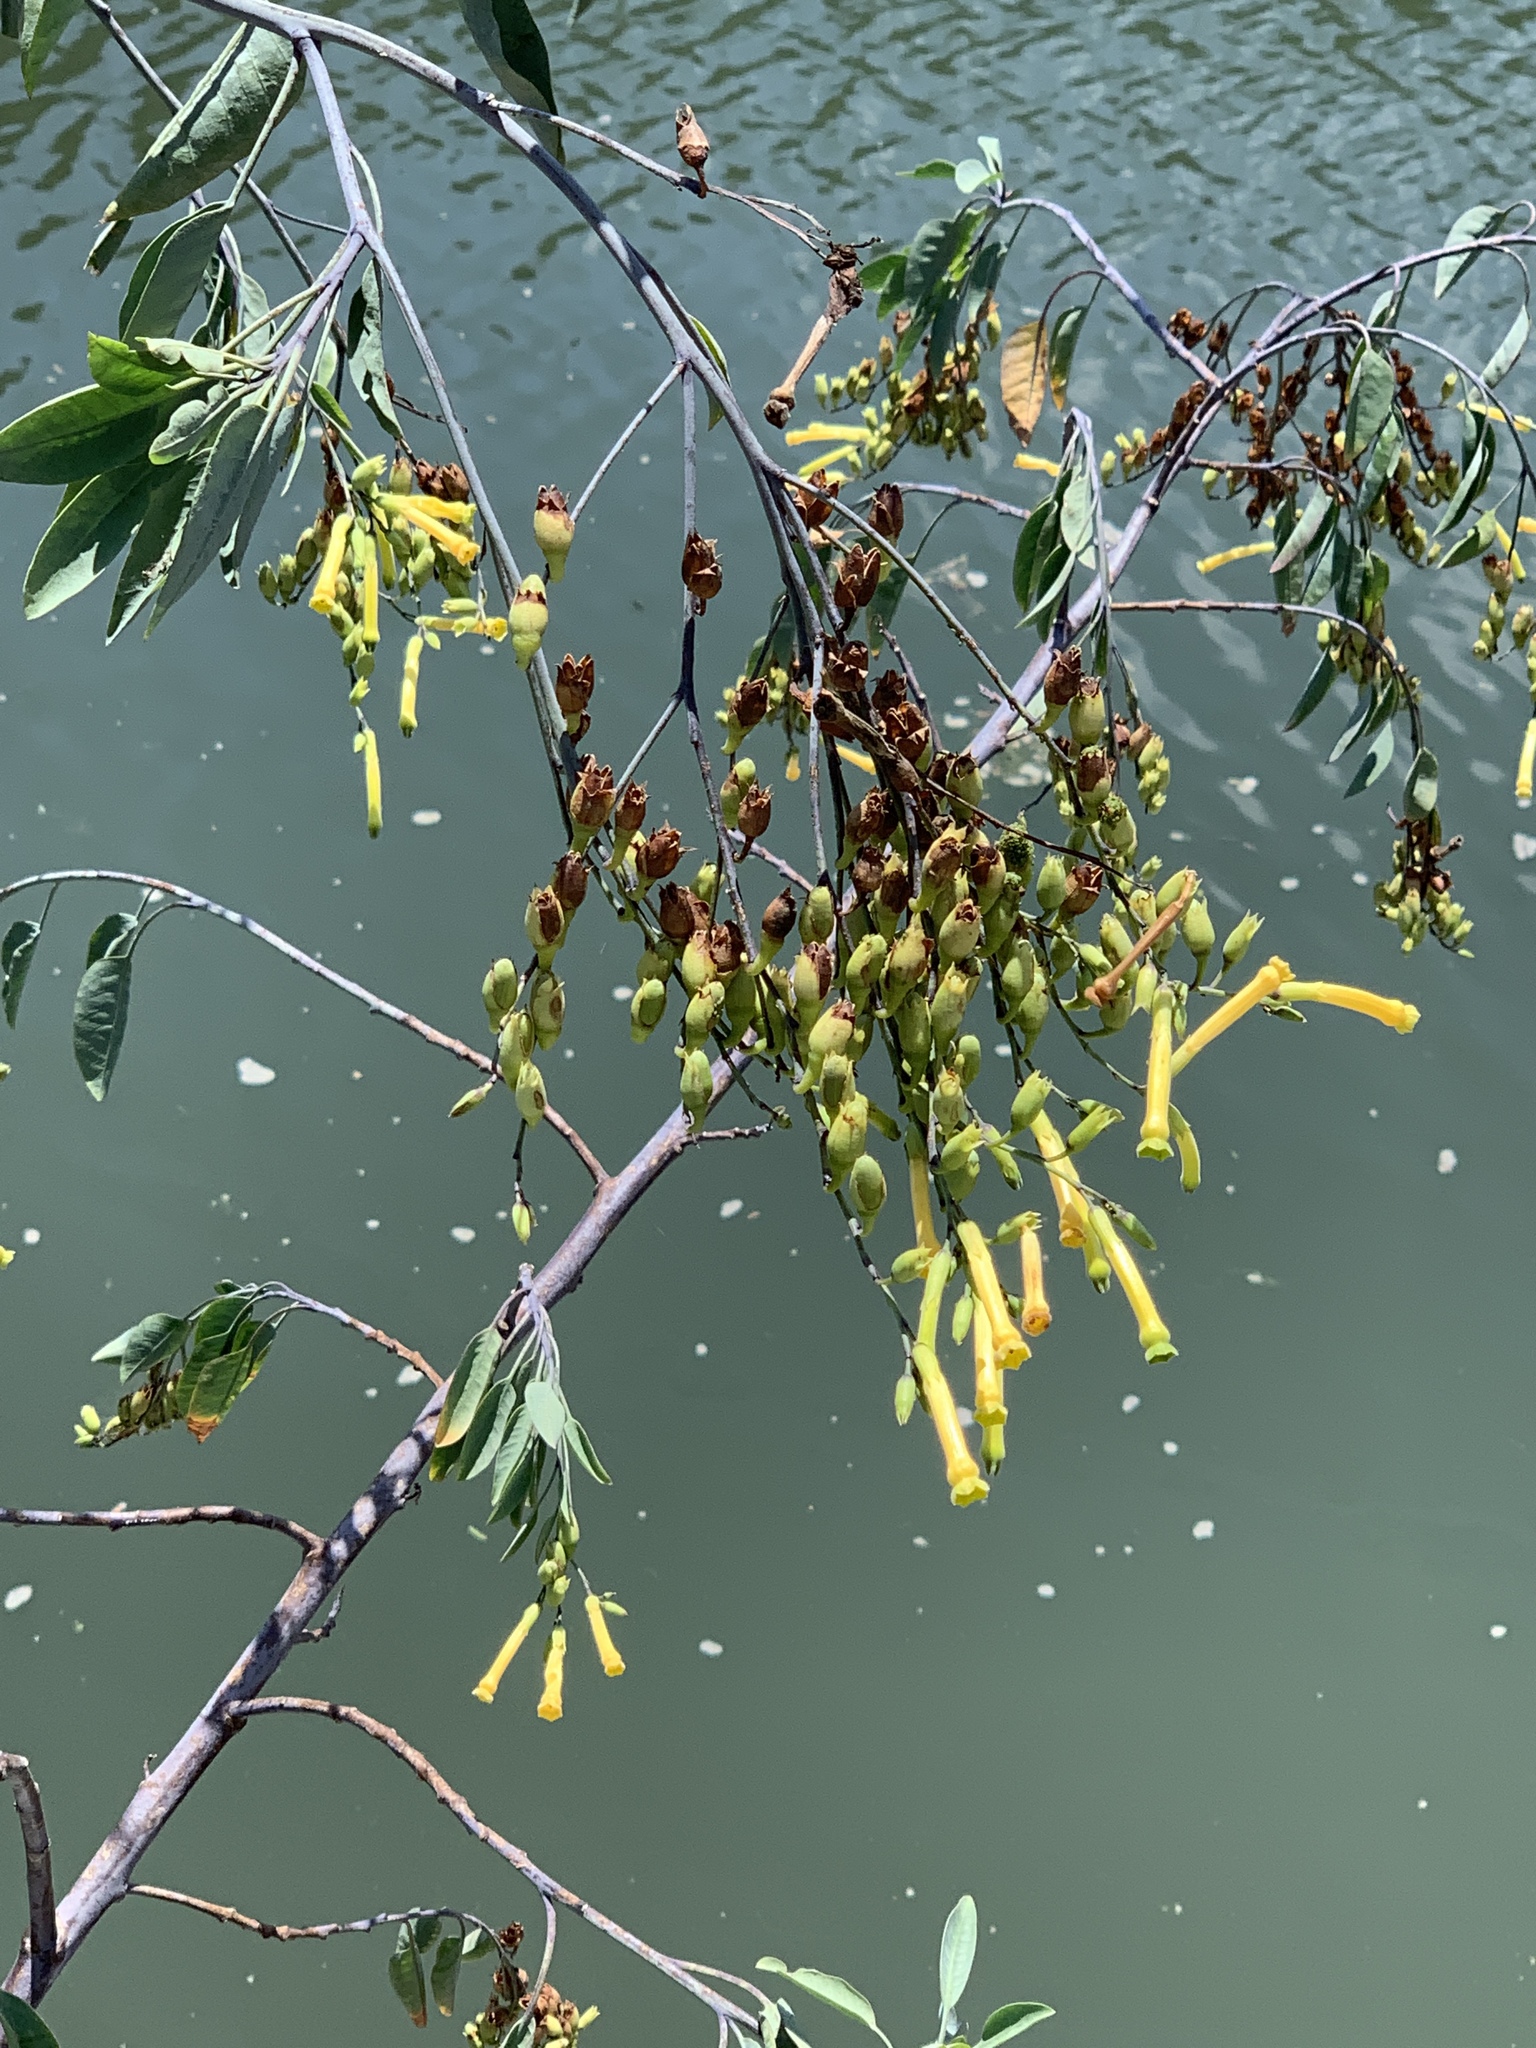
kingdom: Plantae
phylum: Tracheophyta
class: Magnoliopsida
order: Solanales
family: Solanaceae
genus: Nicotiana
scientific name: Nicotiana glauca
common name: Tree tobacco
